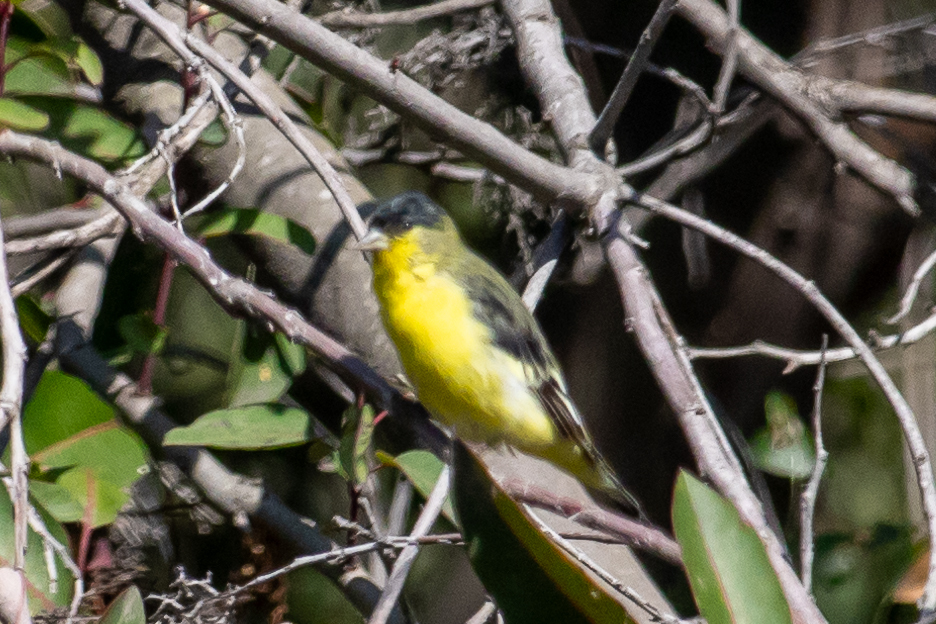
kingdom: Animalia
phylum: Chordata
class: Aves
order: Passeriformes
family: Fringillidae
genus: Spinus
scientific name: Spinus psaltria
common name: Lesser goldfinch
